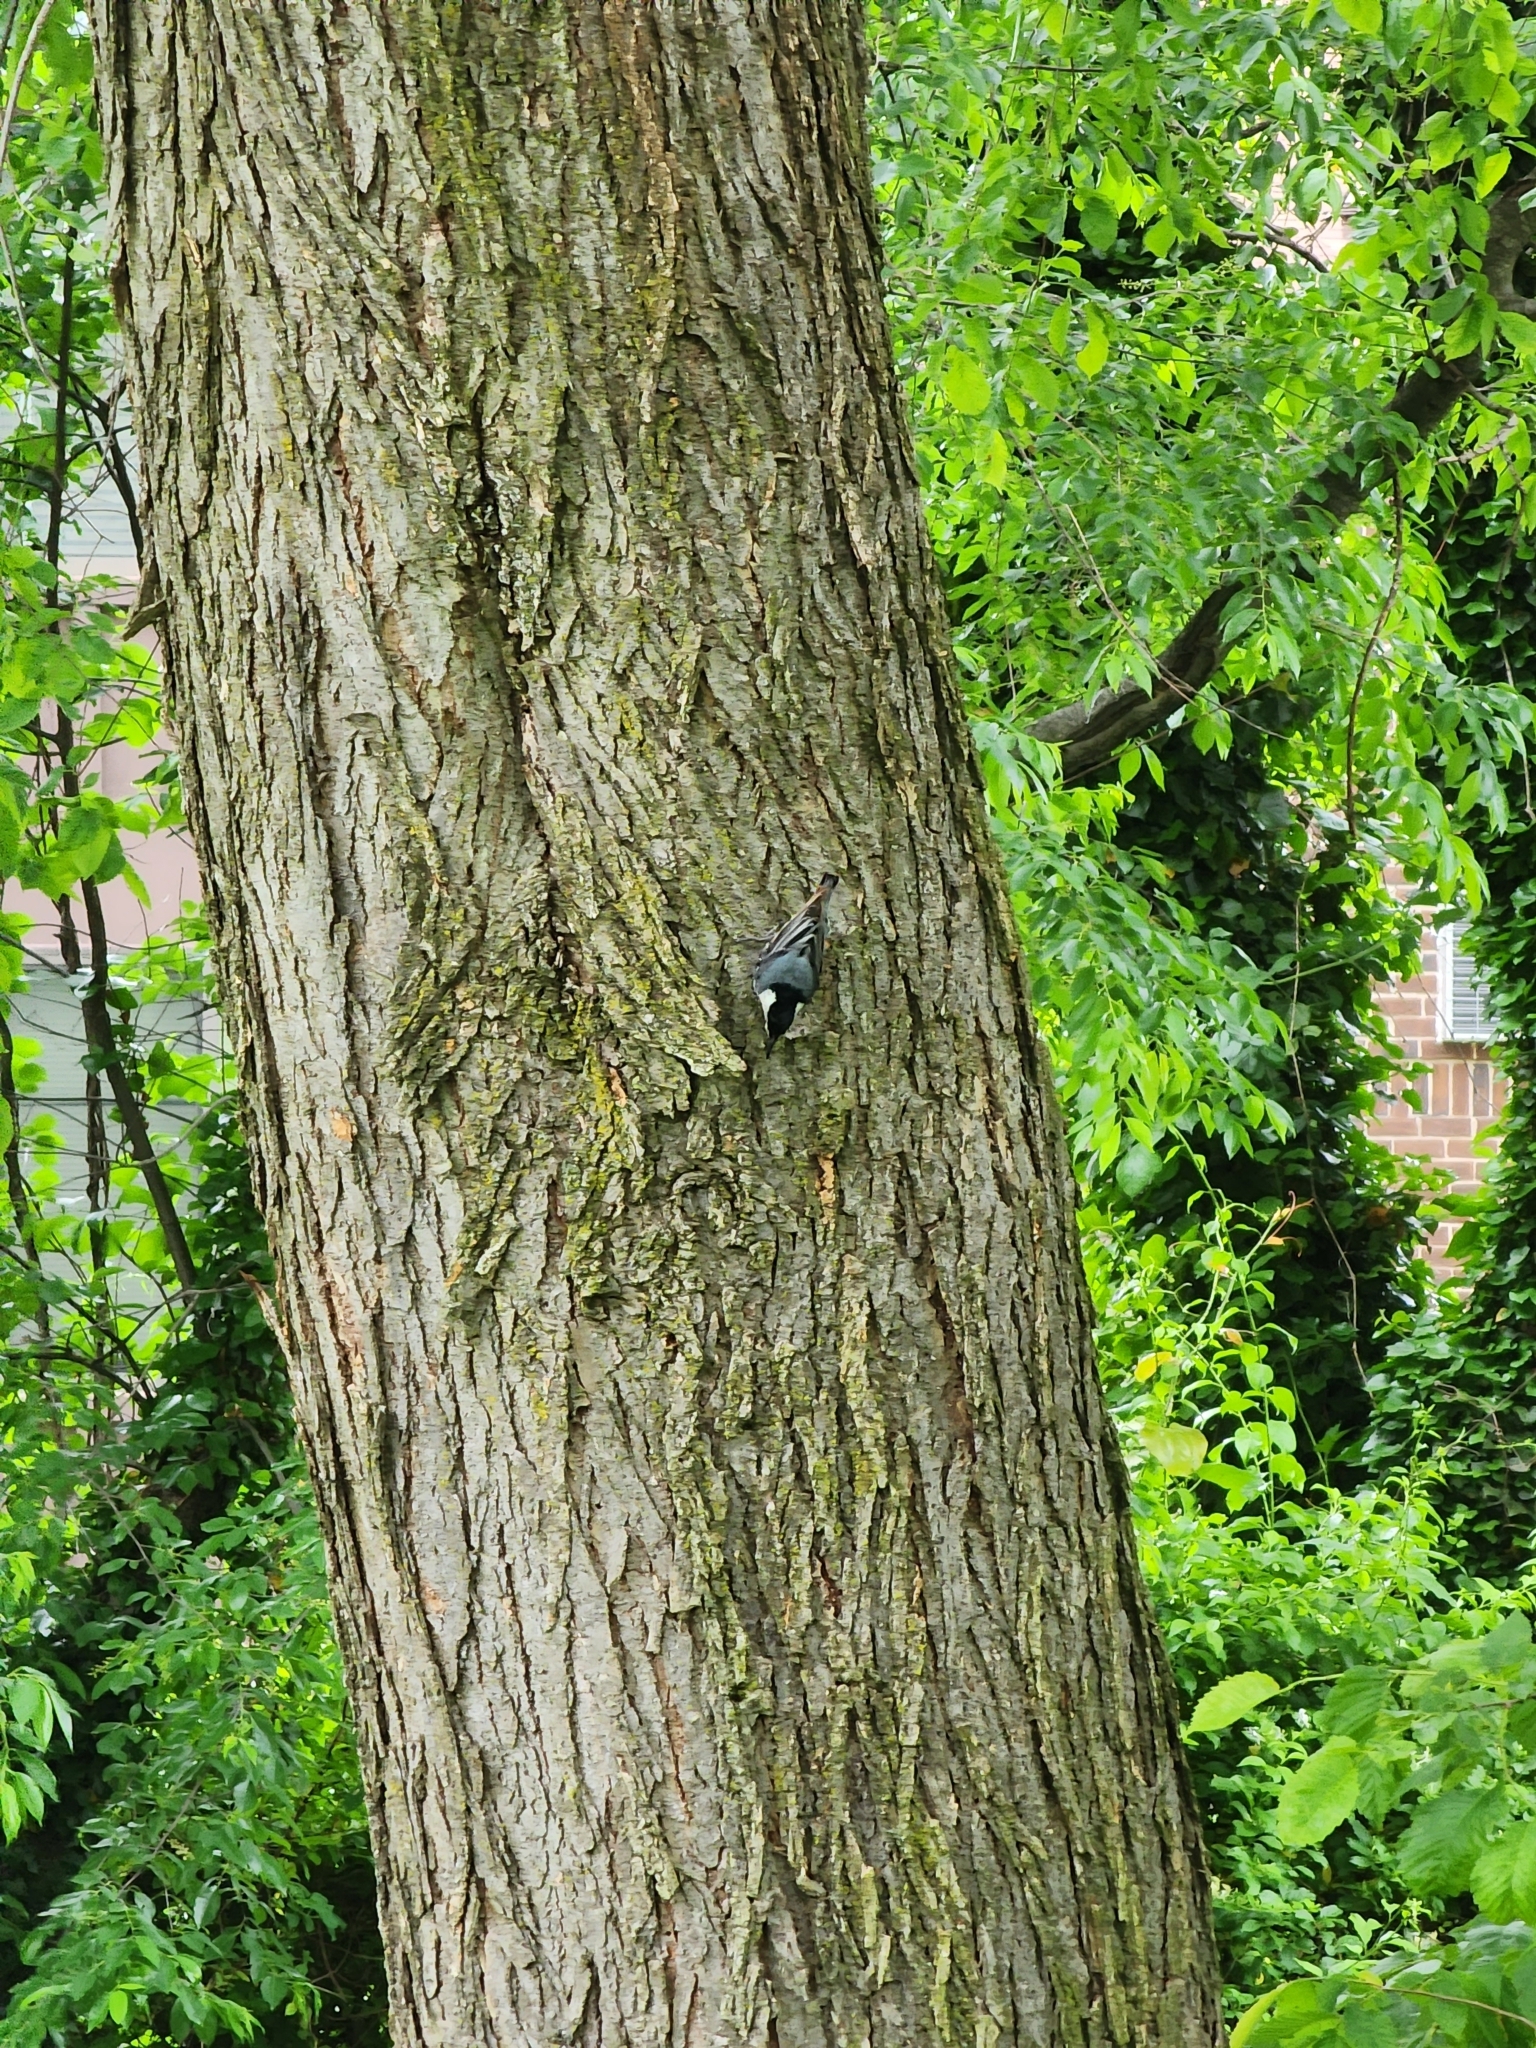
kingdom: Animalia
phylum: Chordata
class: Aves
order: Passeriformes
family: Sittidae
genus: Sitta
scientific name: Sitta carolinensis
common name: White-breasted nuthatch
